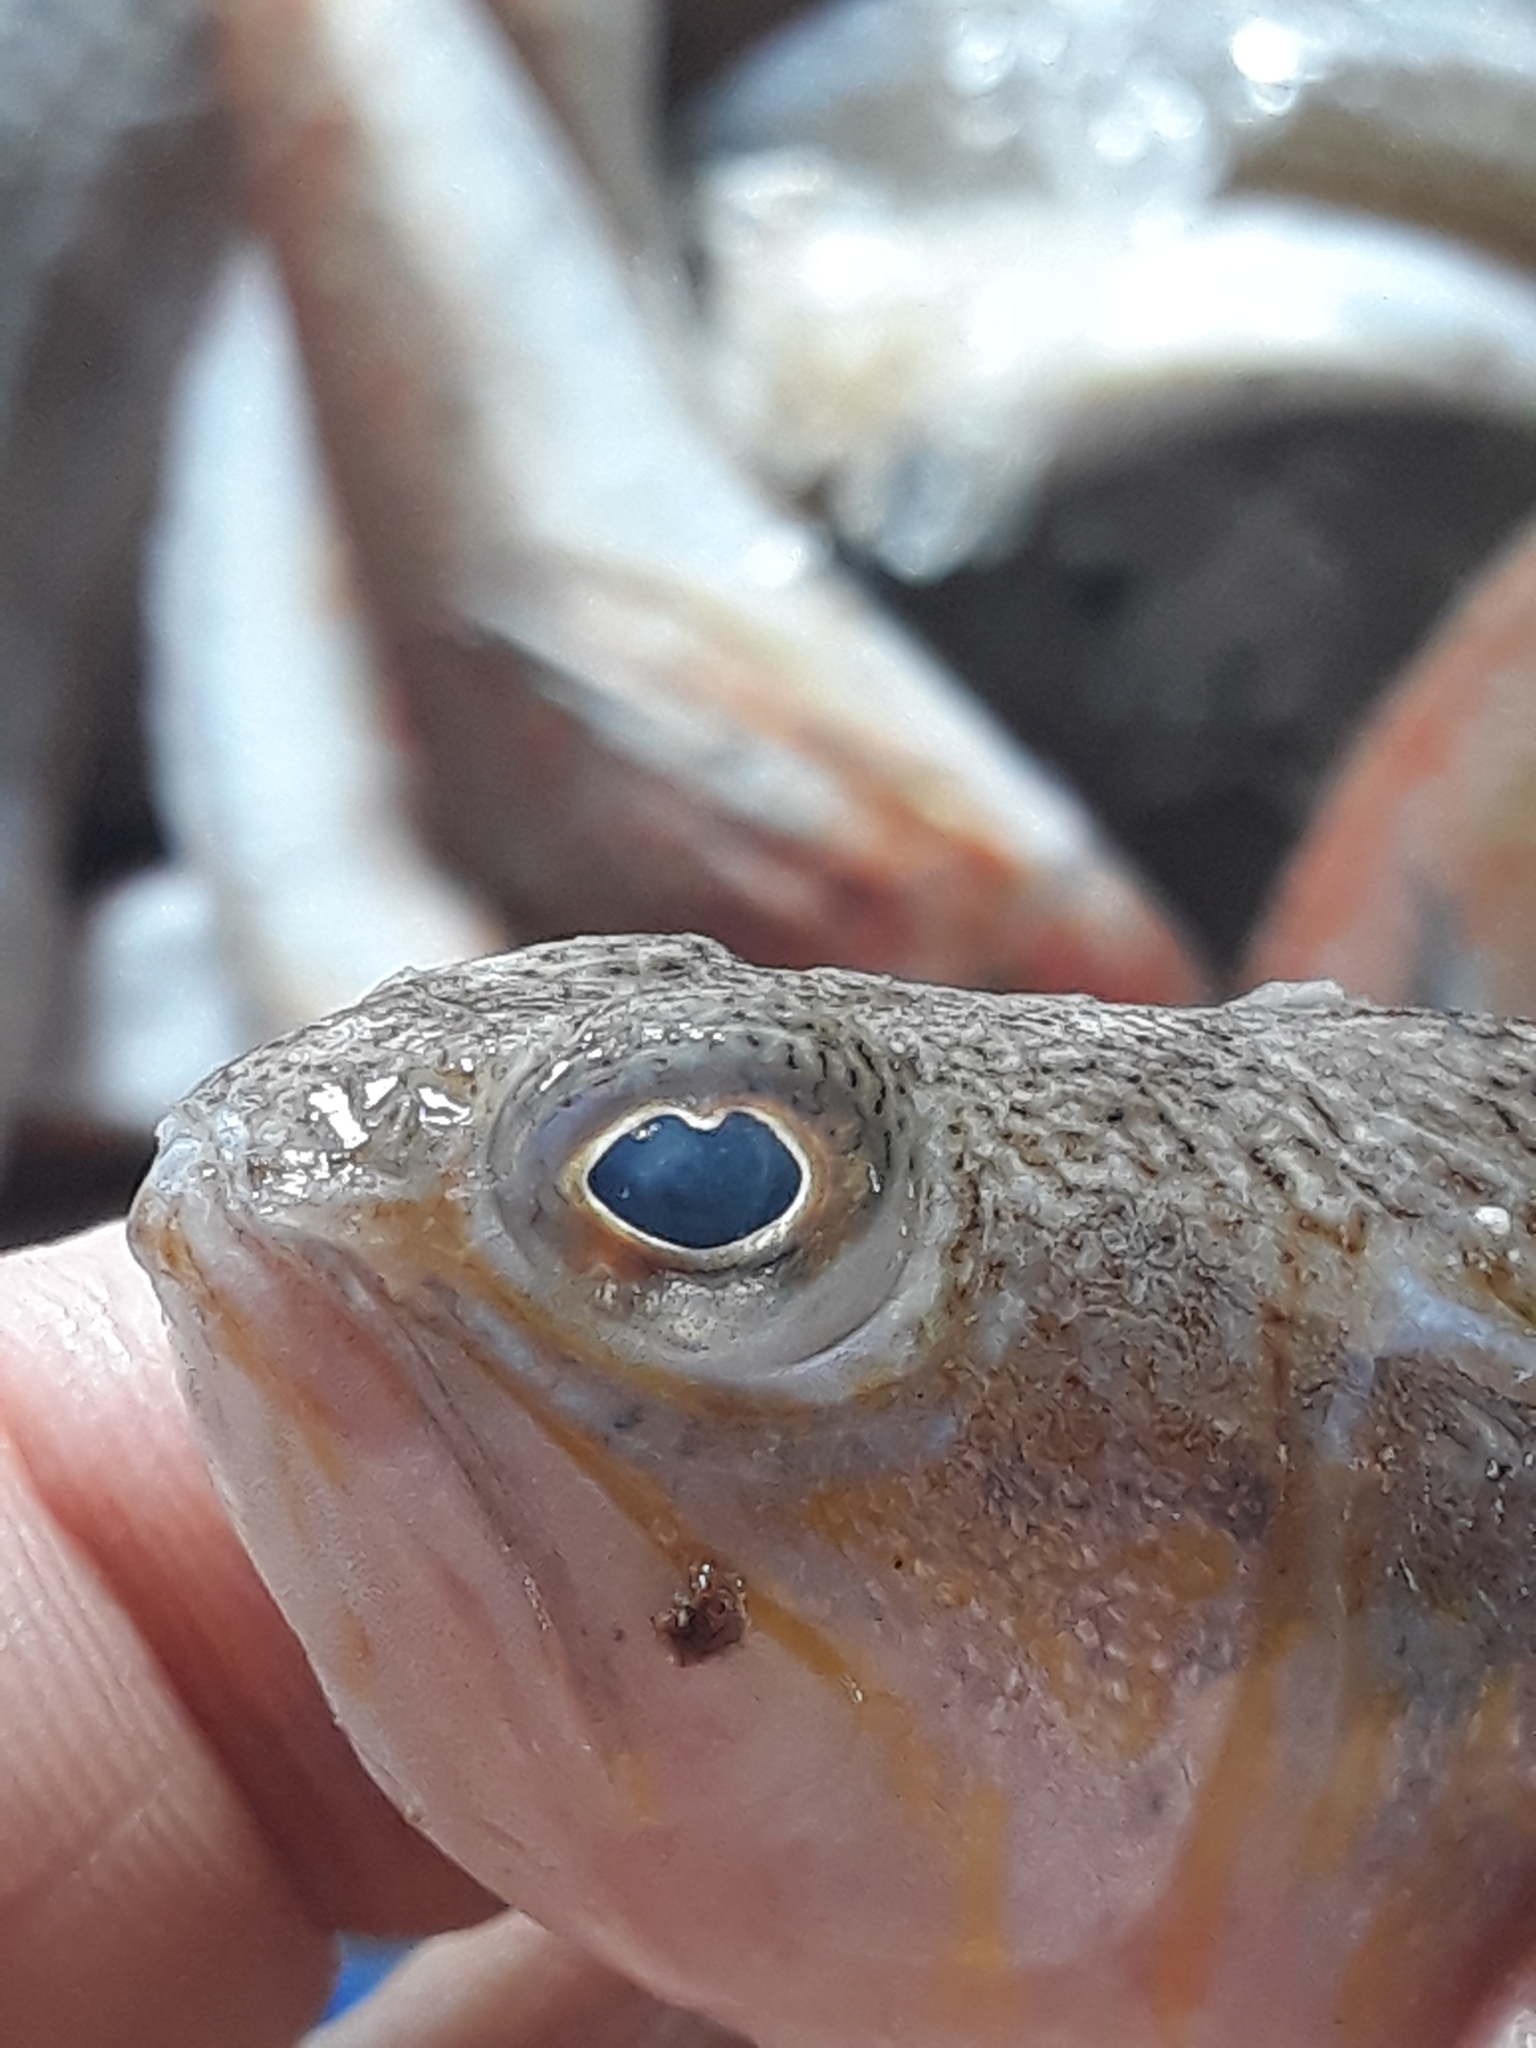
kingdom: Animalia
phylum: Chordata
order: Perciformes
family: Trachinidae
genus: Trachinus
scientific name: Trachinus draco
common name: Greater weever
